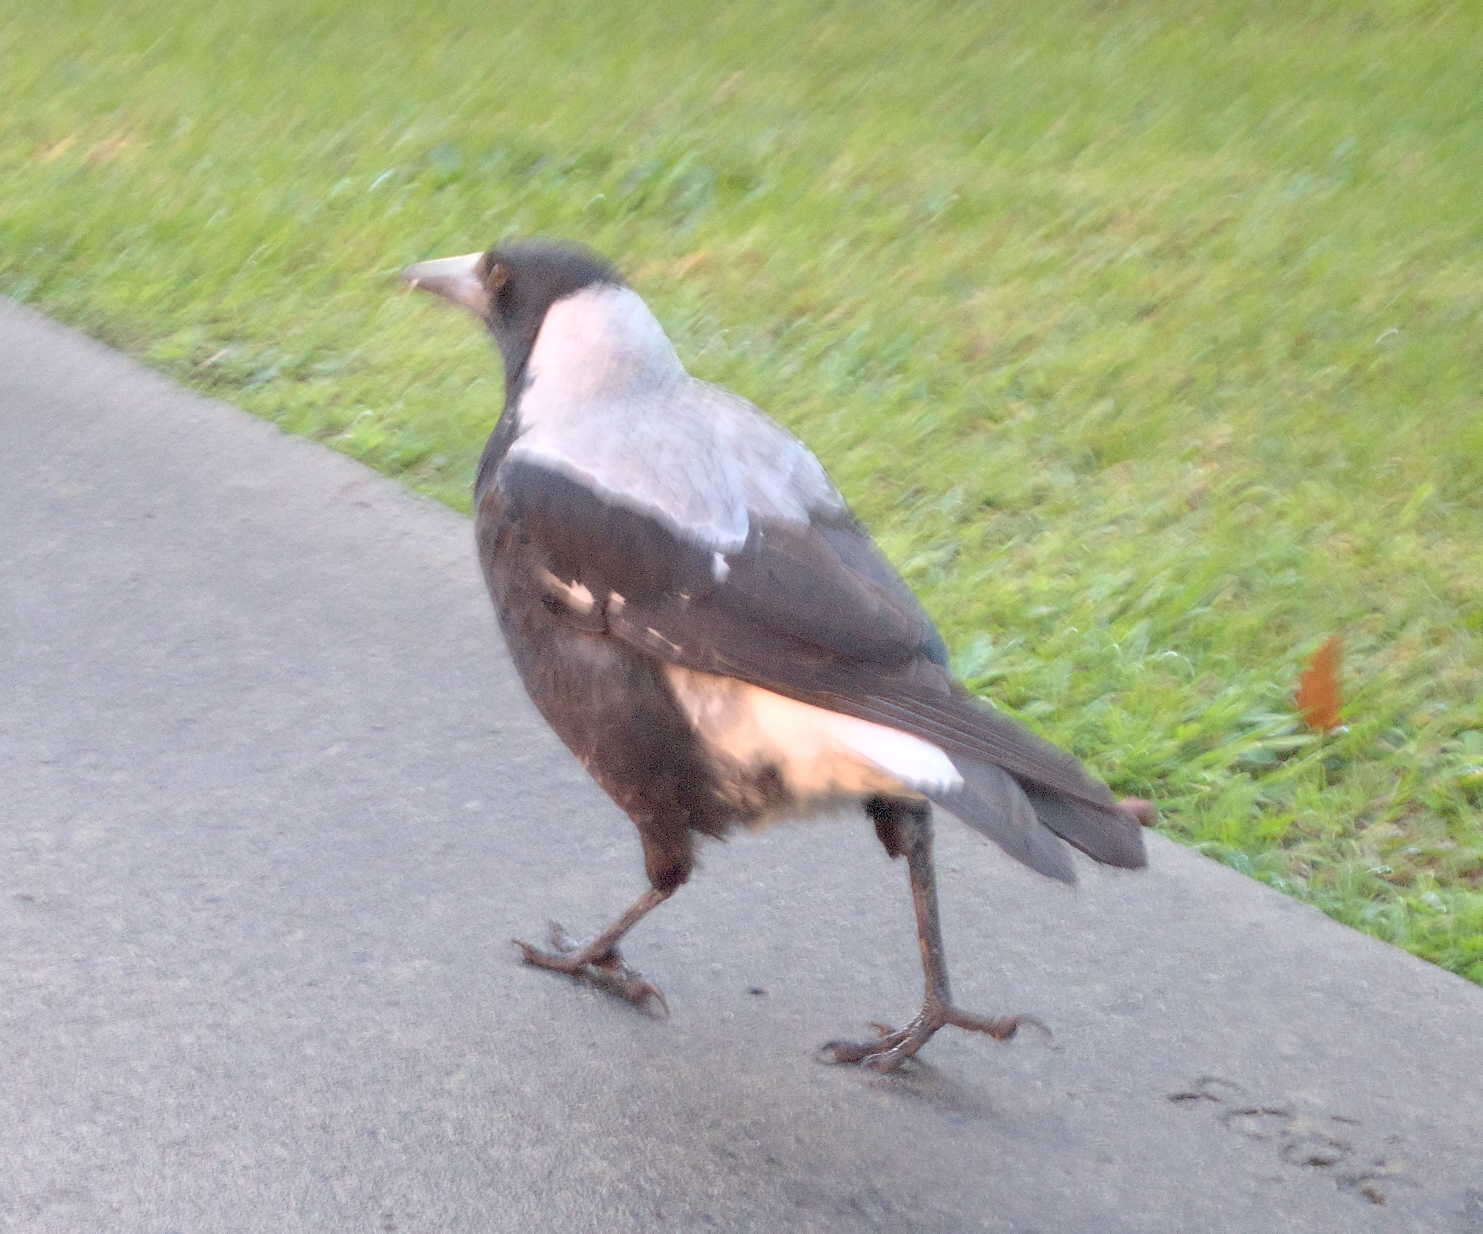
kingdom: Animalia
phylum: Chordata
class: Aves
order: Passeriformes
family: Cracticidae
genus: Gymnorhina
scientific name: Gymnorhina tibicen
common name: Australian magpie
